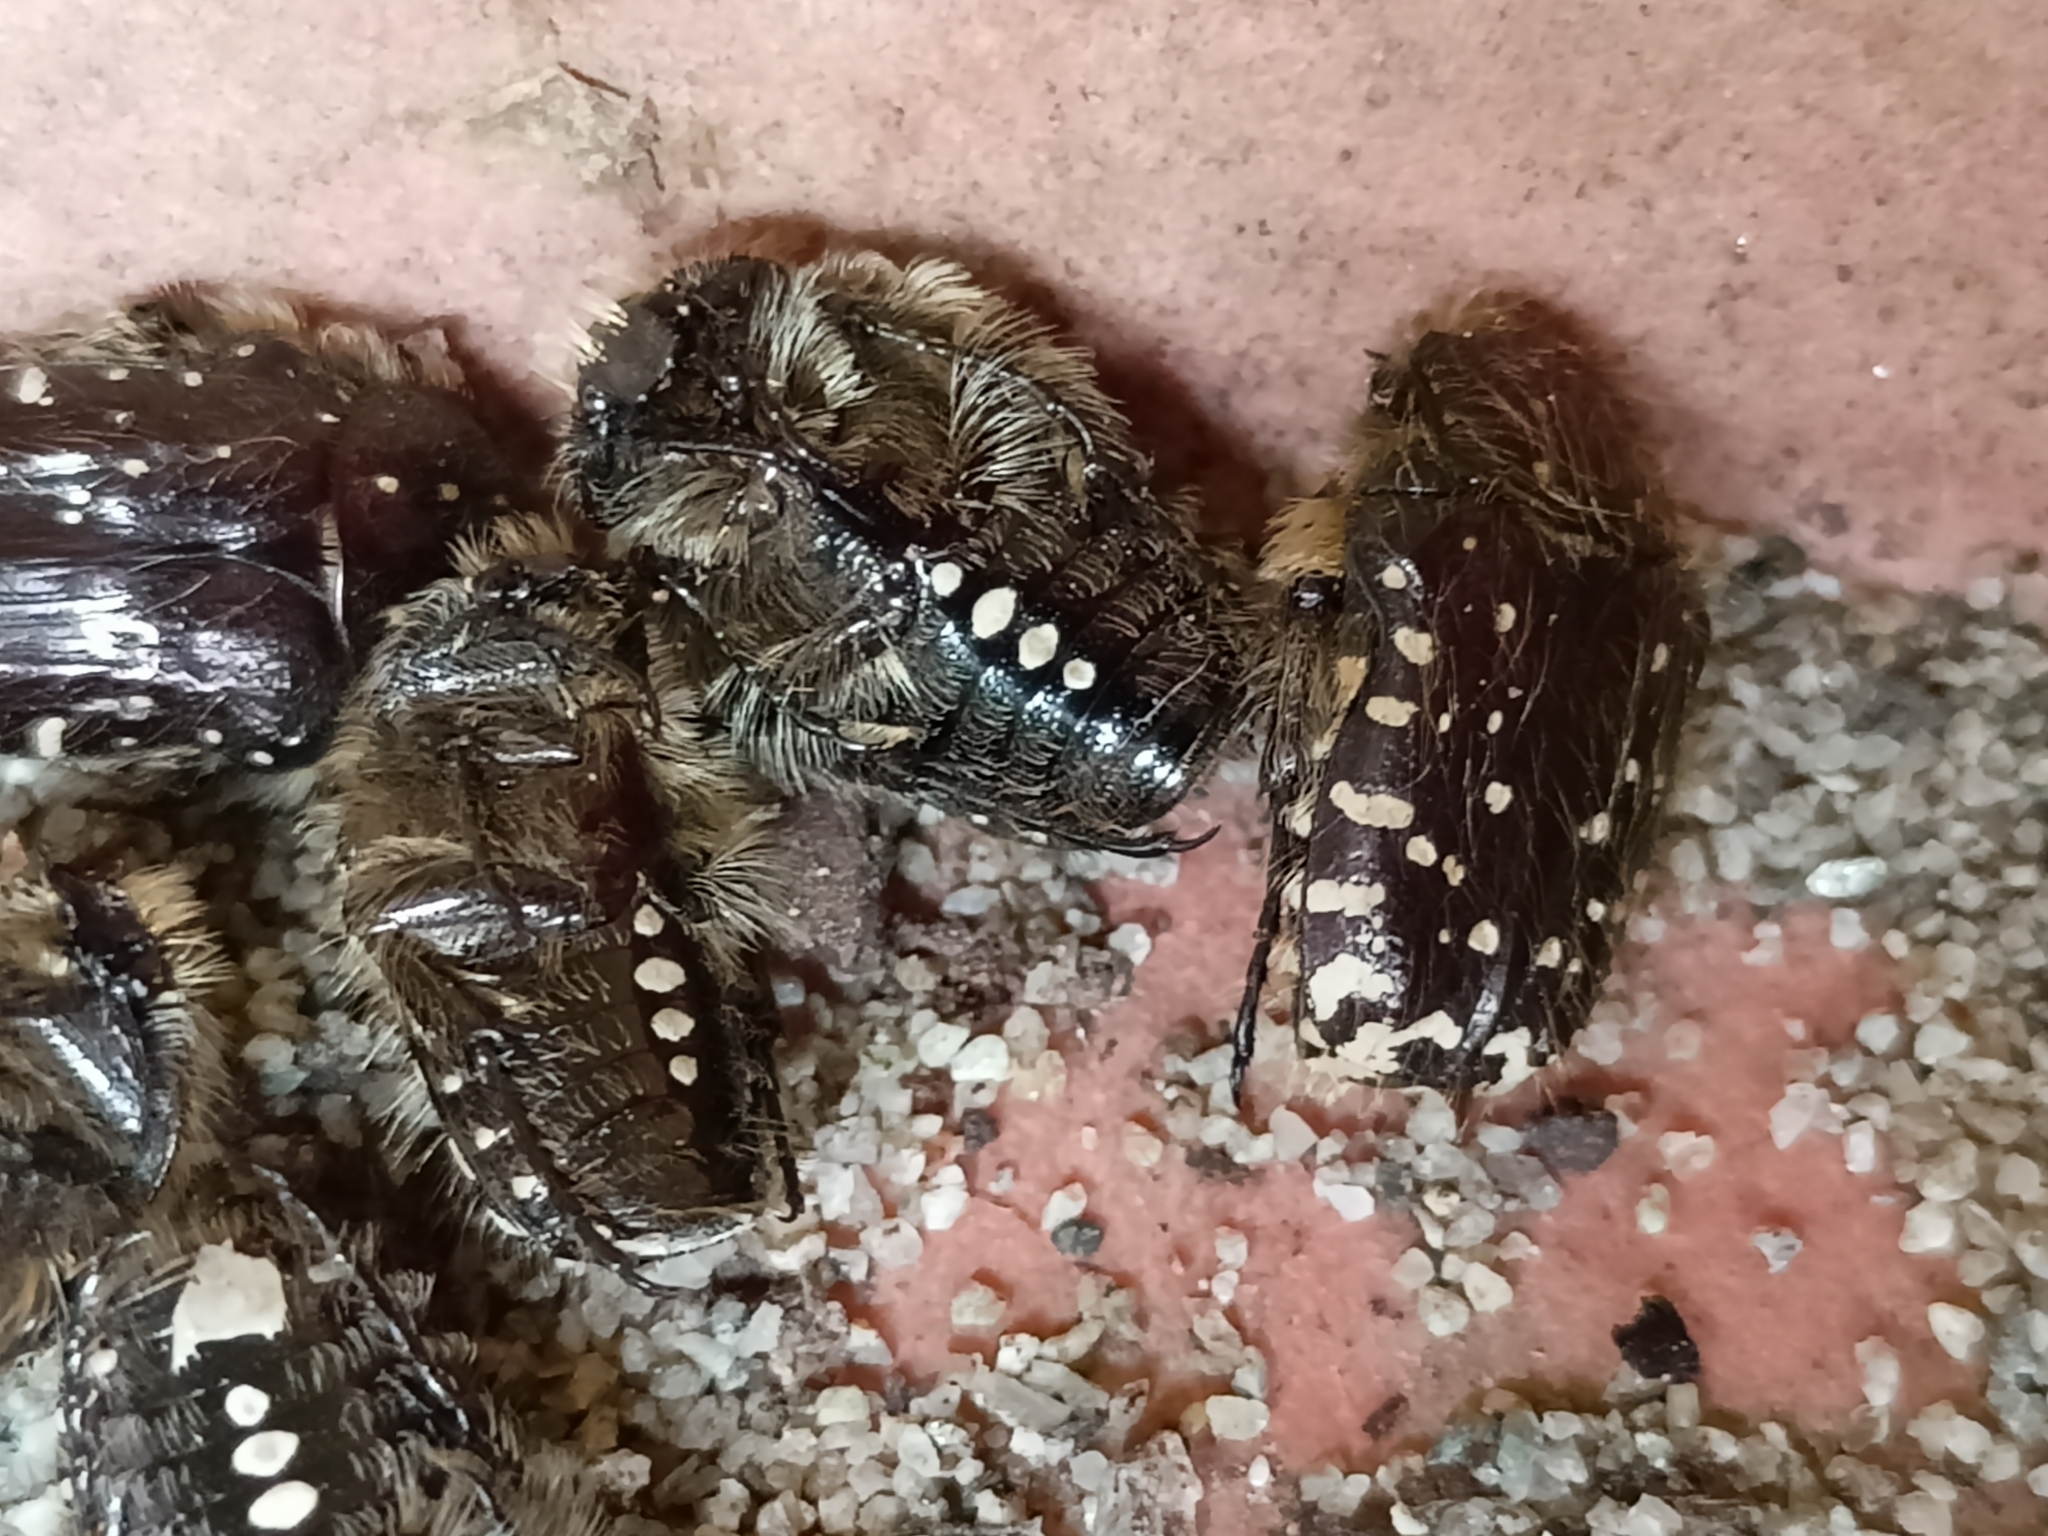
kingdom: Animalia
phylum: Arthropoda
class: Insecta
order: Coleoptera
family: Scarabaeidae
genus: Oxythyrea
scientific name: Oxythyrea funesta
